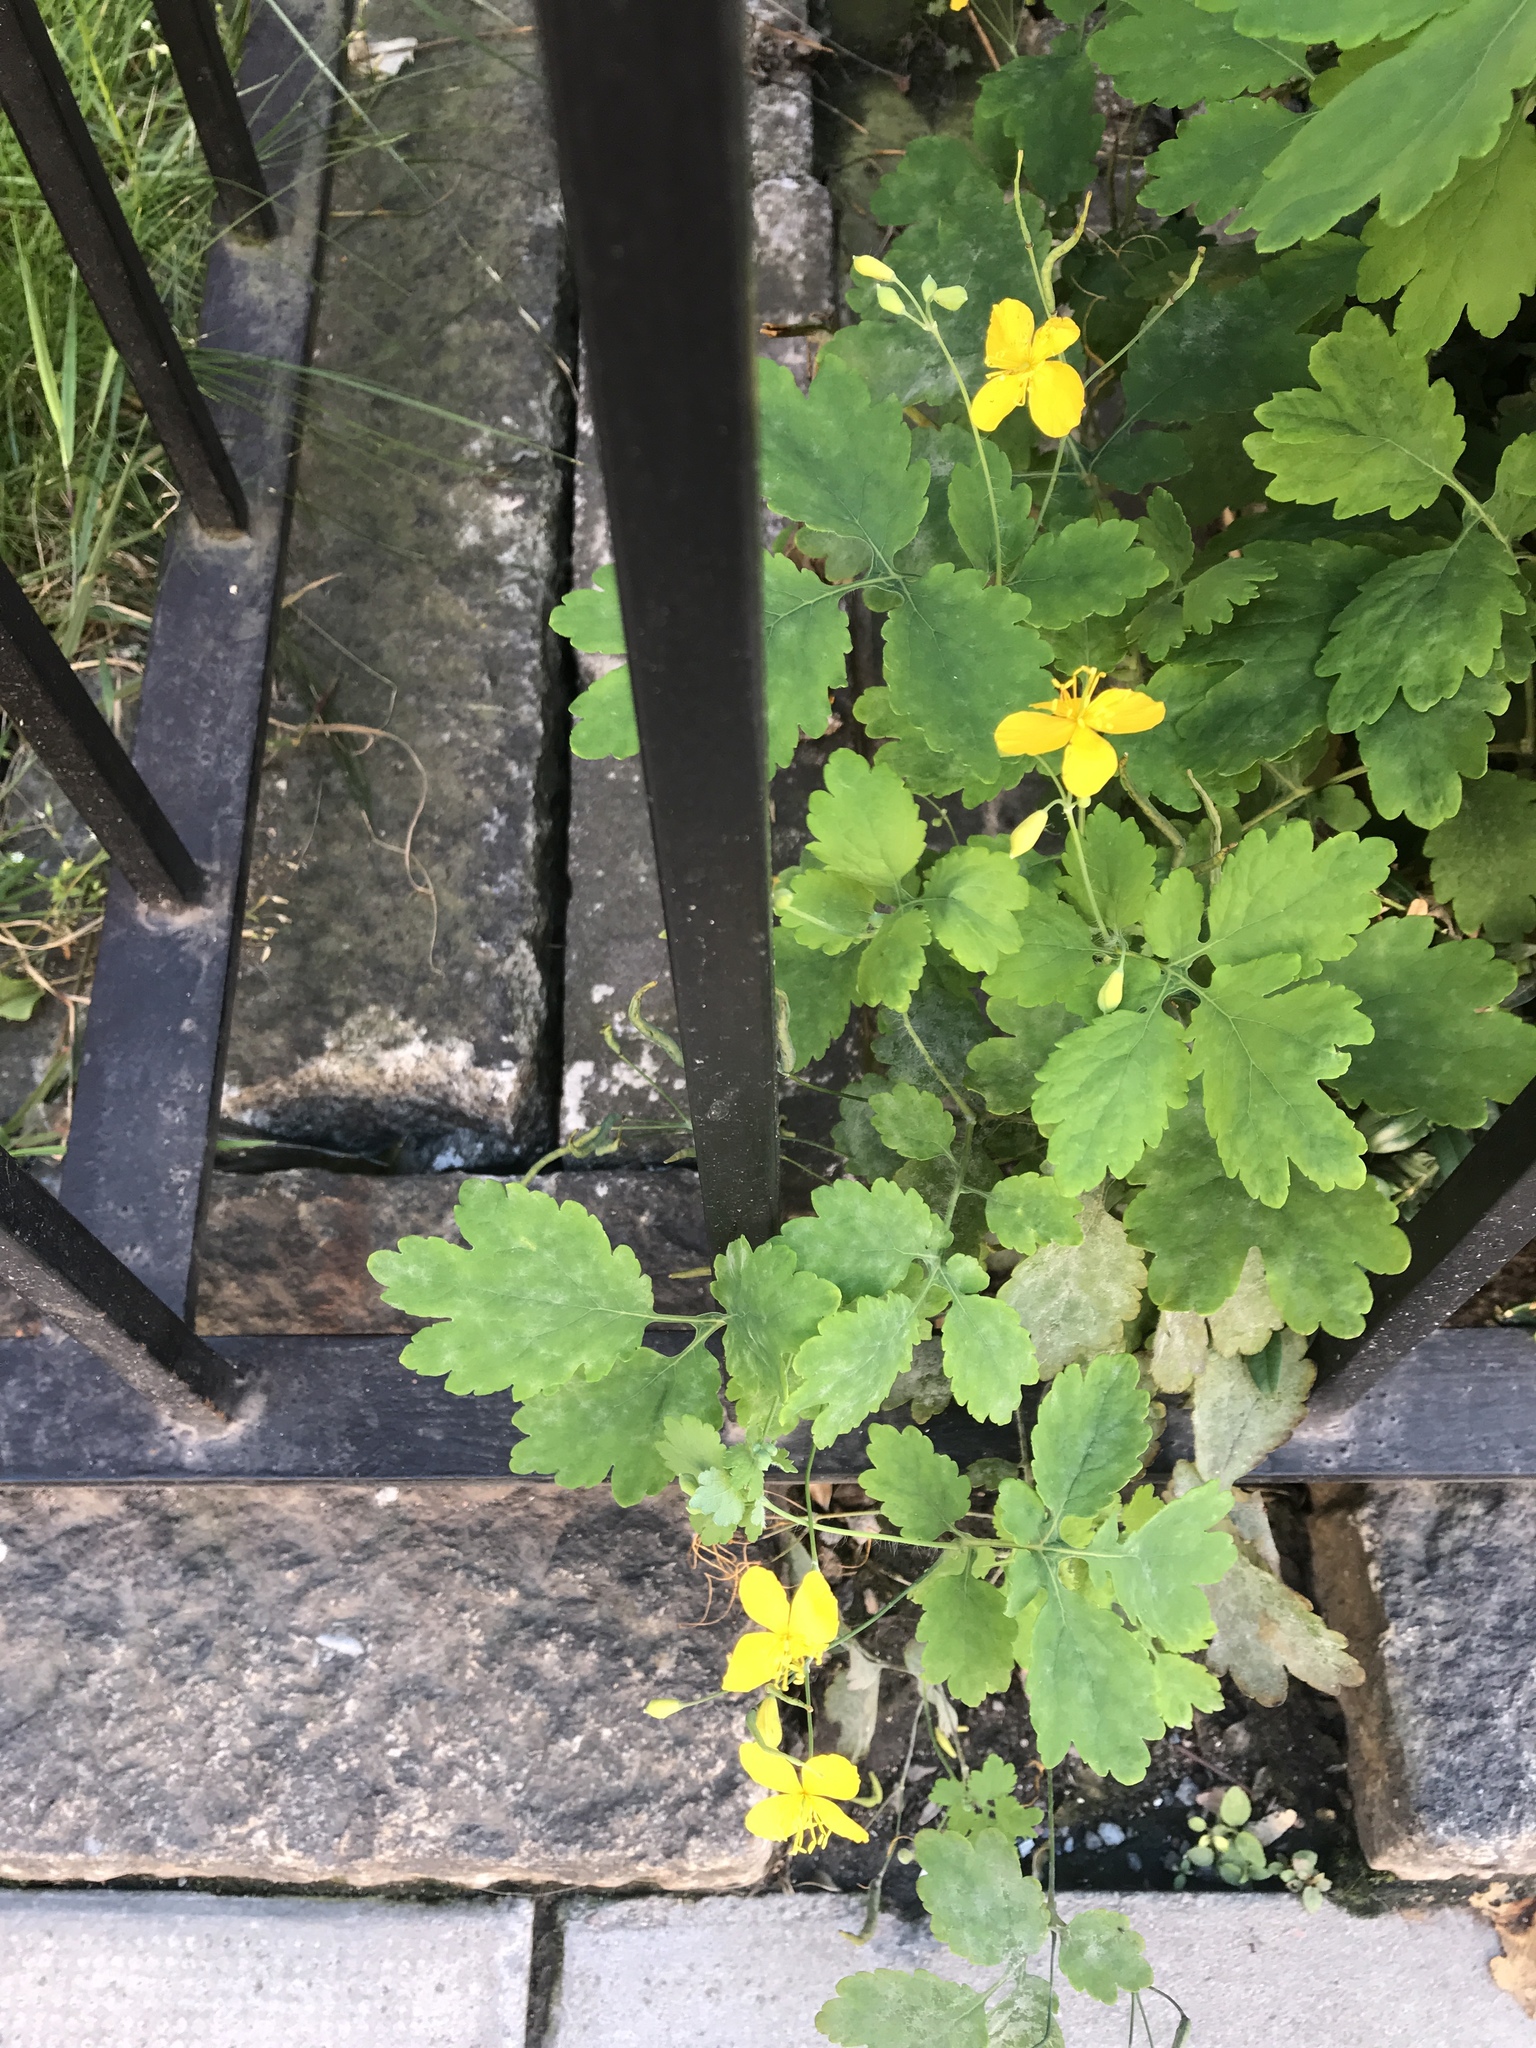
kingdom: Plantae
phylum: Tracheophyta
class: Magnoliopsida
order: Ranunculales
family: Papaveraceae
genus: Chelidonium
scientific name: Chelidonium majus
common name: Greater celandine
